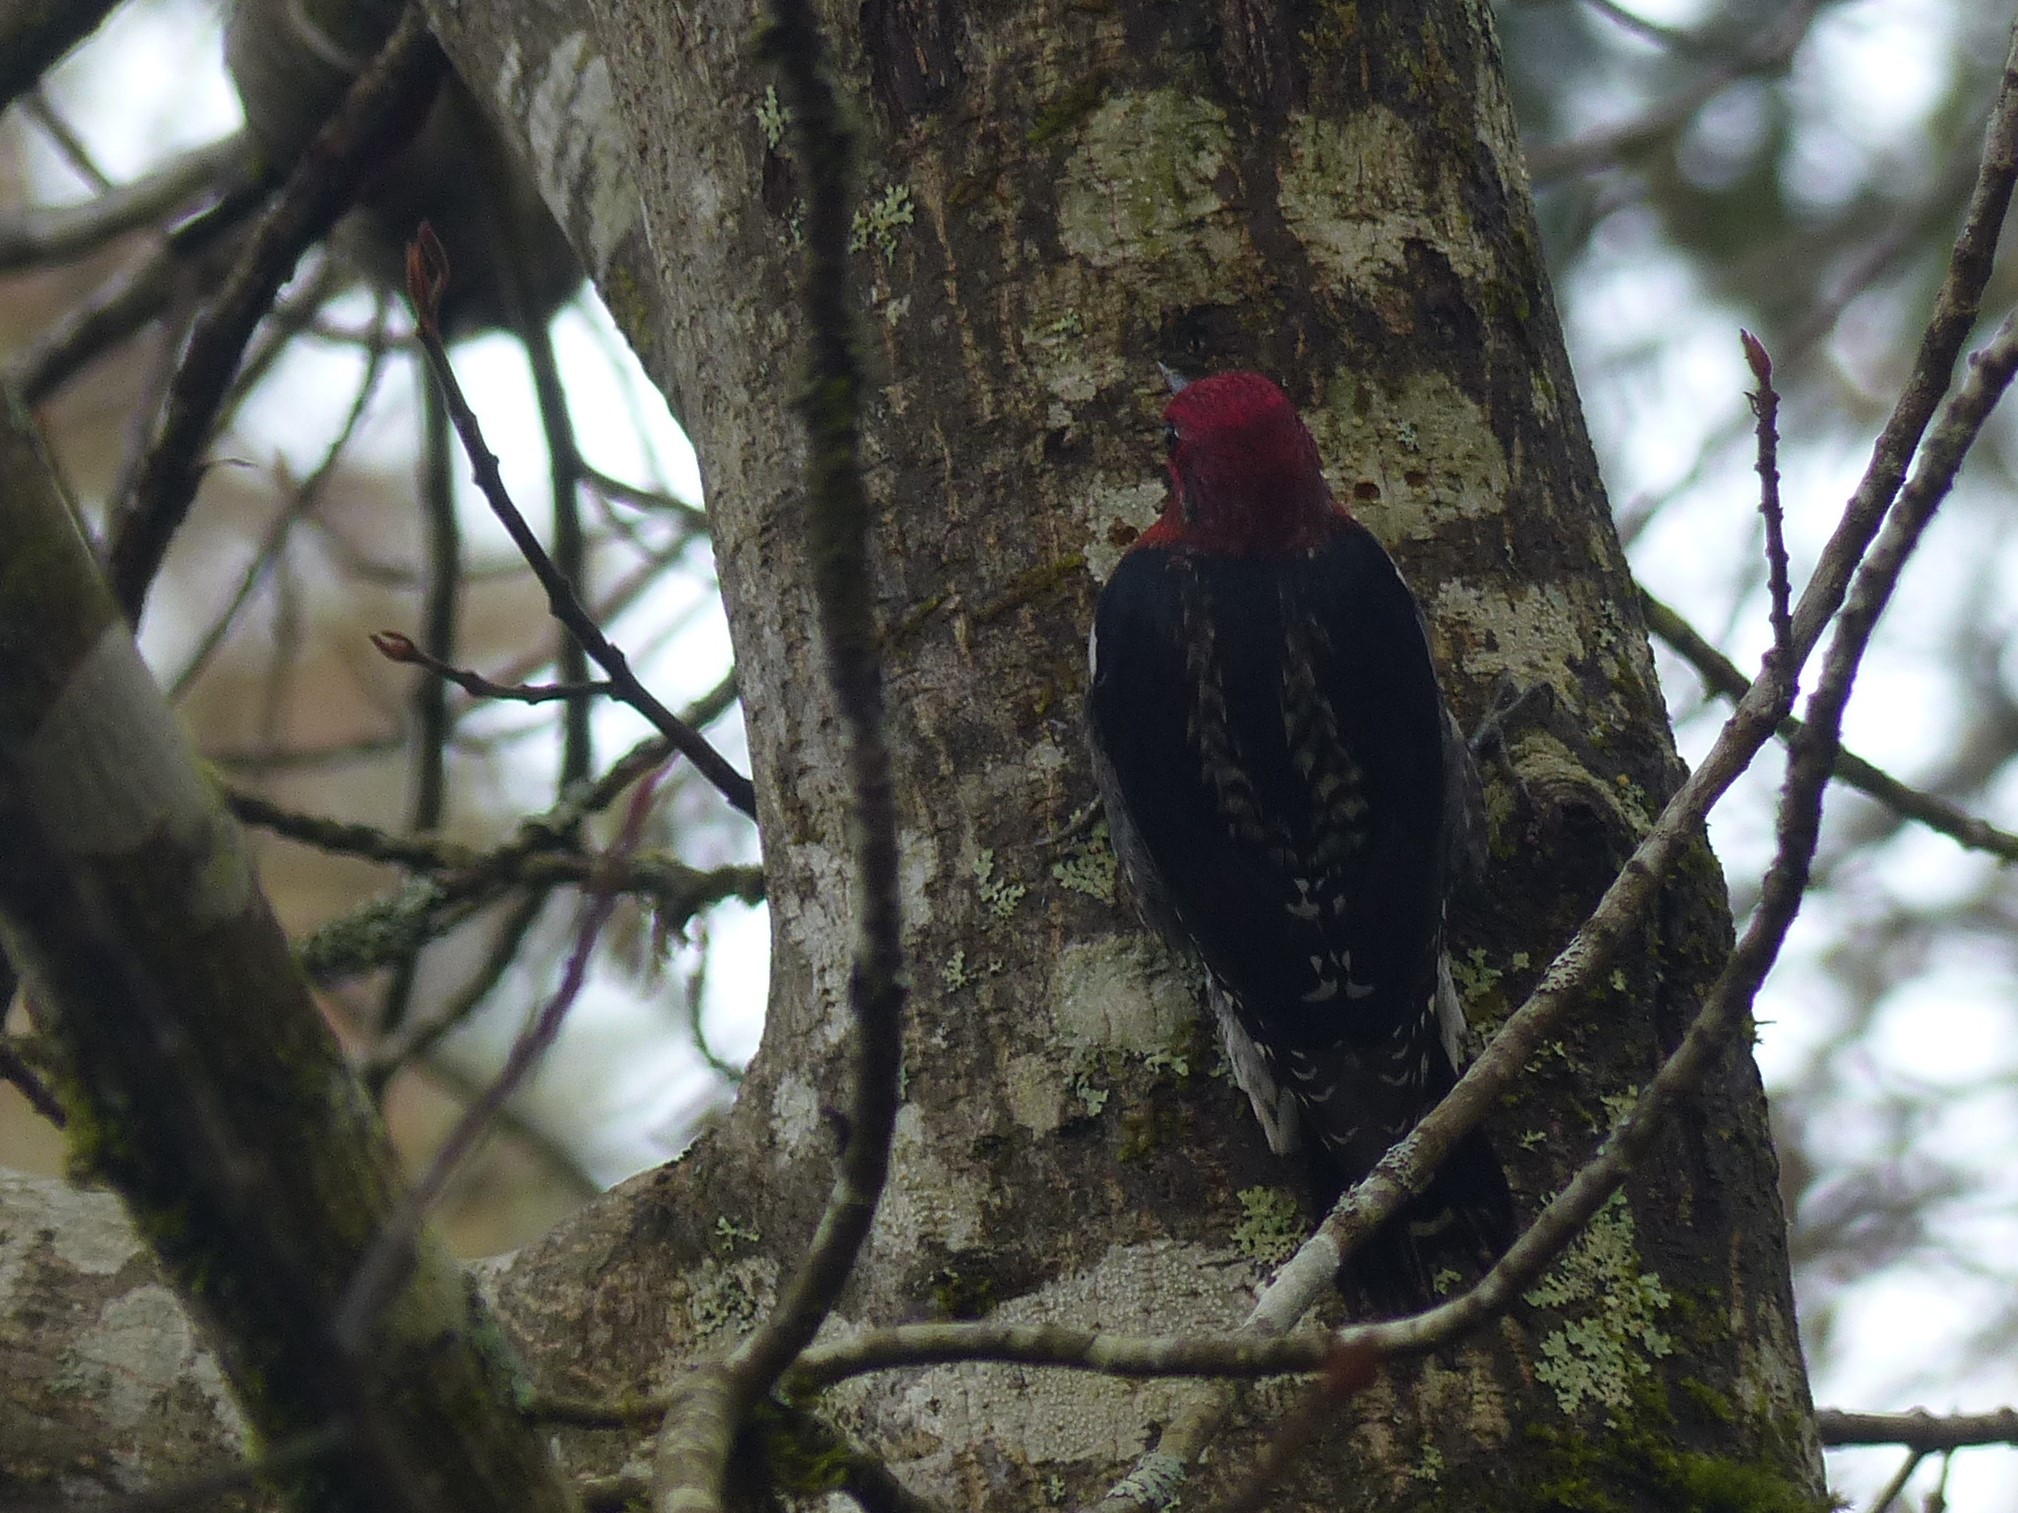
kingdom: Animalia
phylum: Chordata
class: Aves
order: Piciformes
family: Picidae
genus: Sphyrapicus
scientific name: Sphyrapicus ruber
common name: Red-breasted sapsucker
